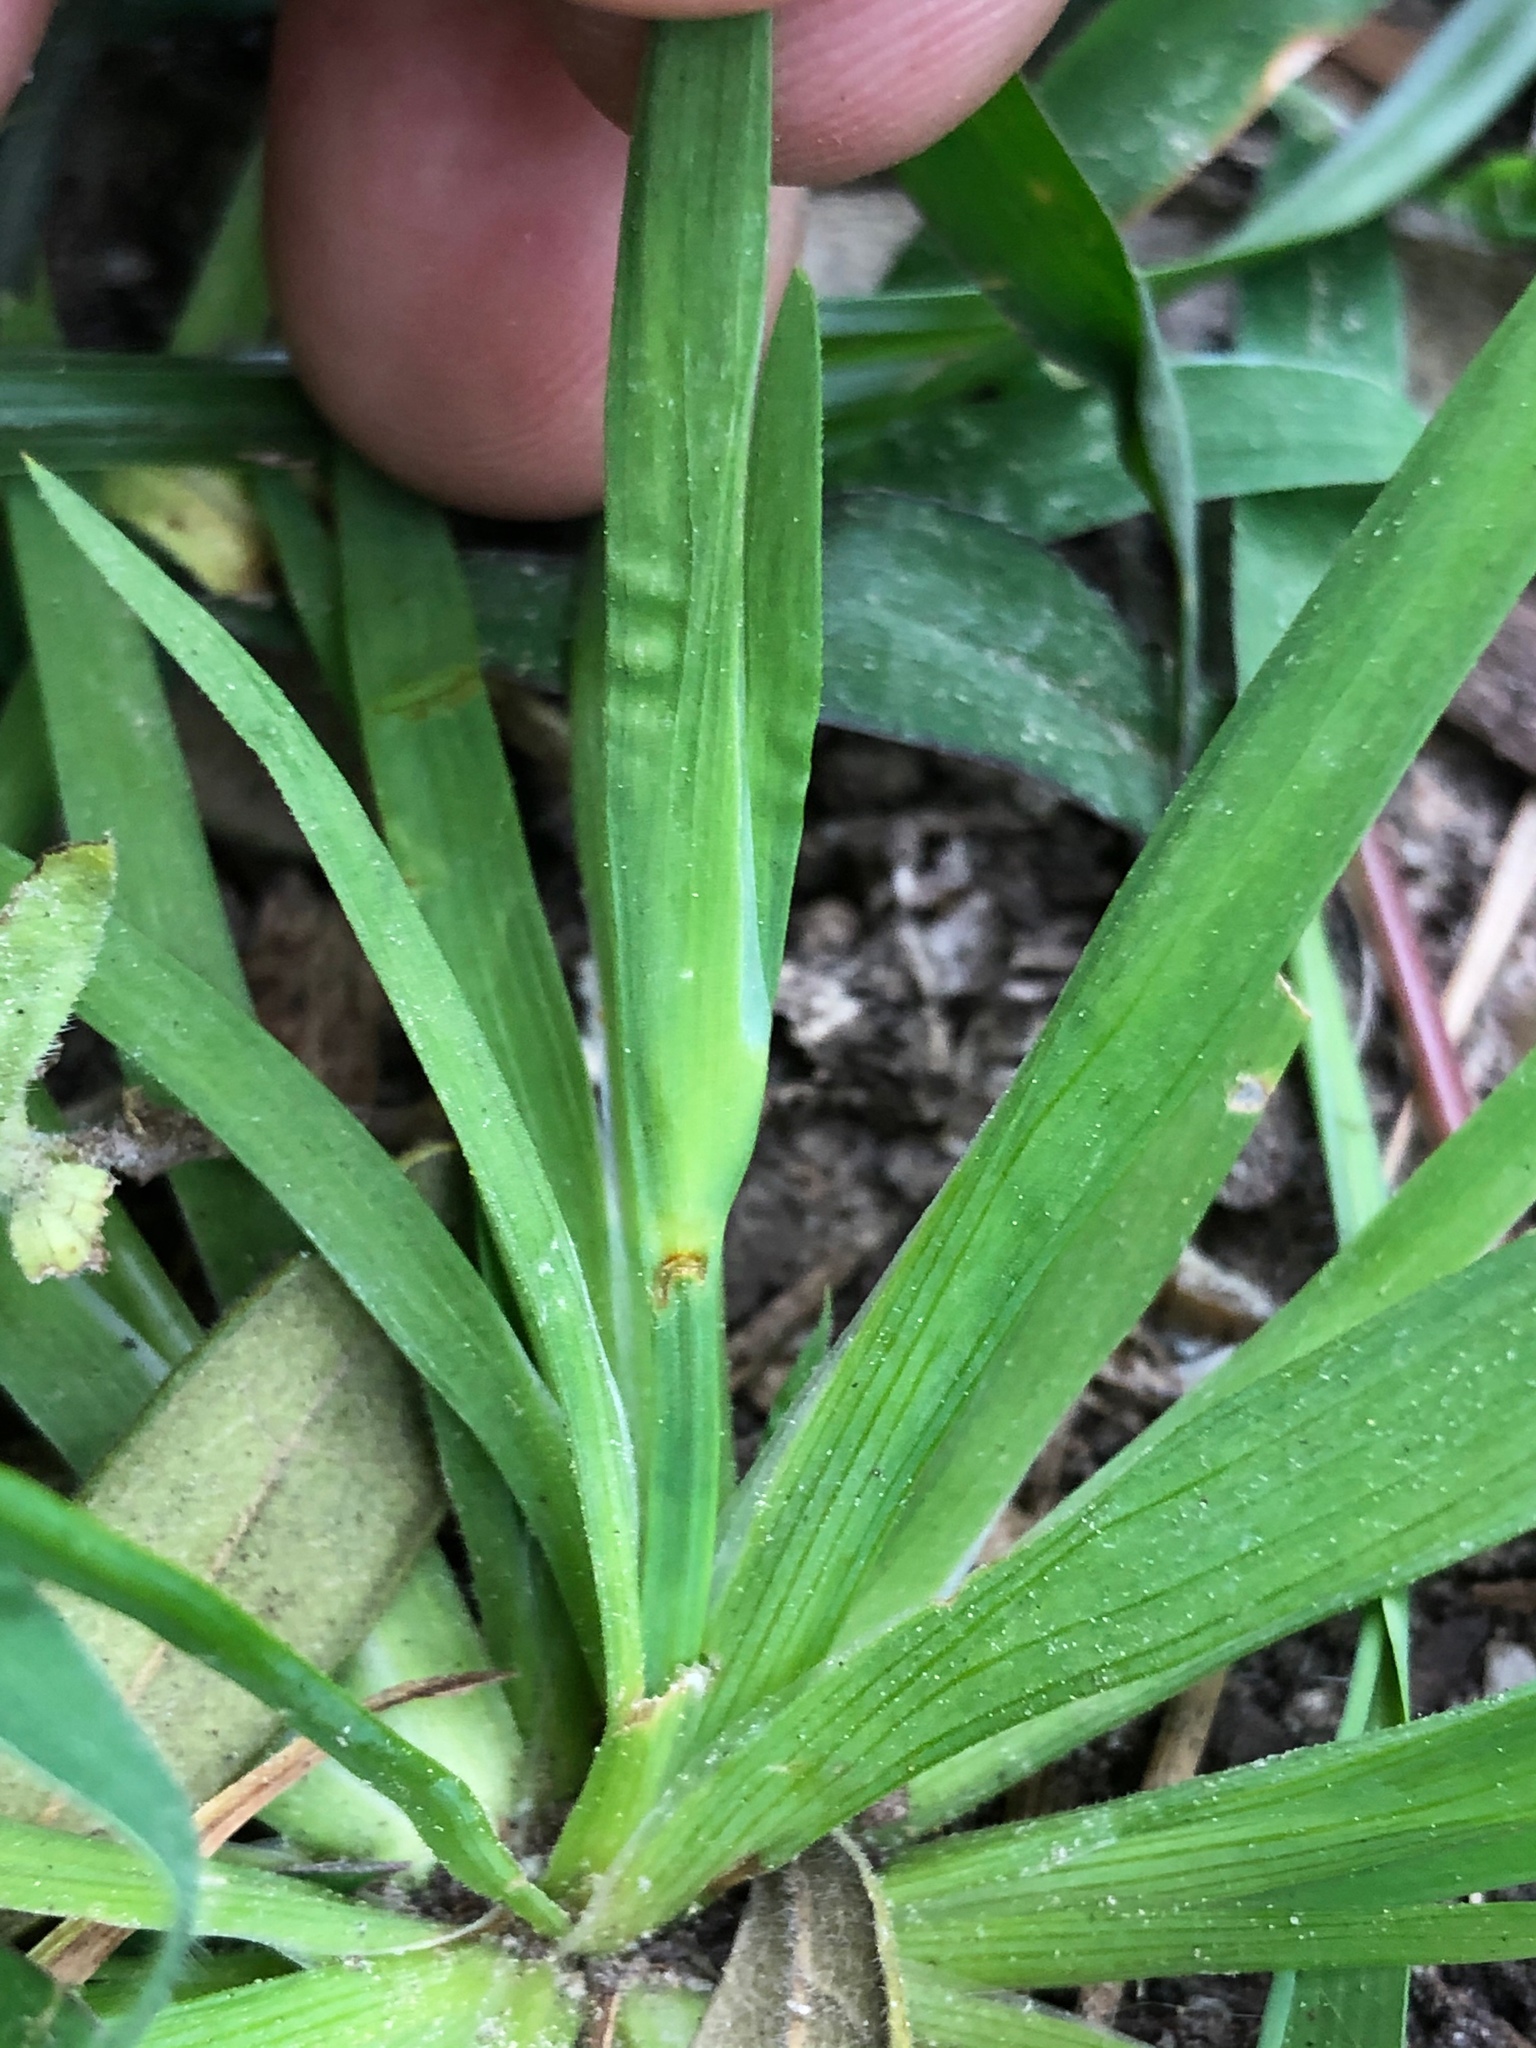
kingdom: Plantae
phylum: Tracheophyta
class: Liliopsida
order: Asparagales
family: Iridaceae
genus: Sisyrinchium
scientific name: Sisyrinchium micranthum
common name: Bermuda pigroot
